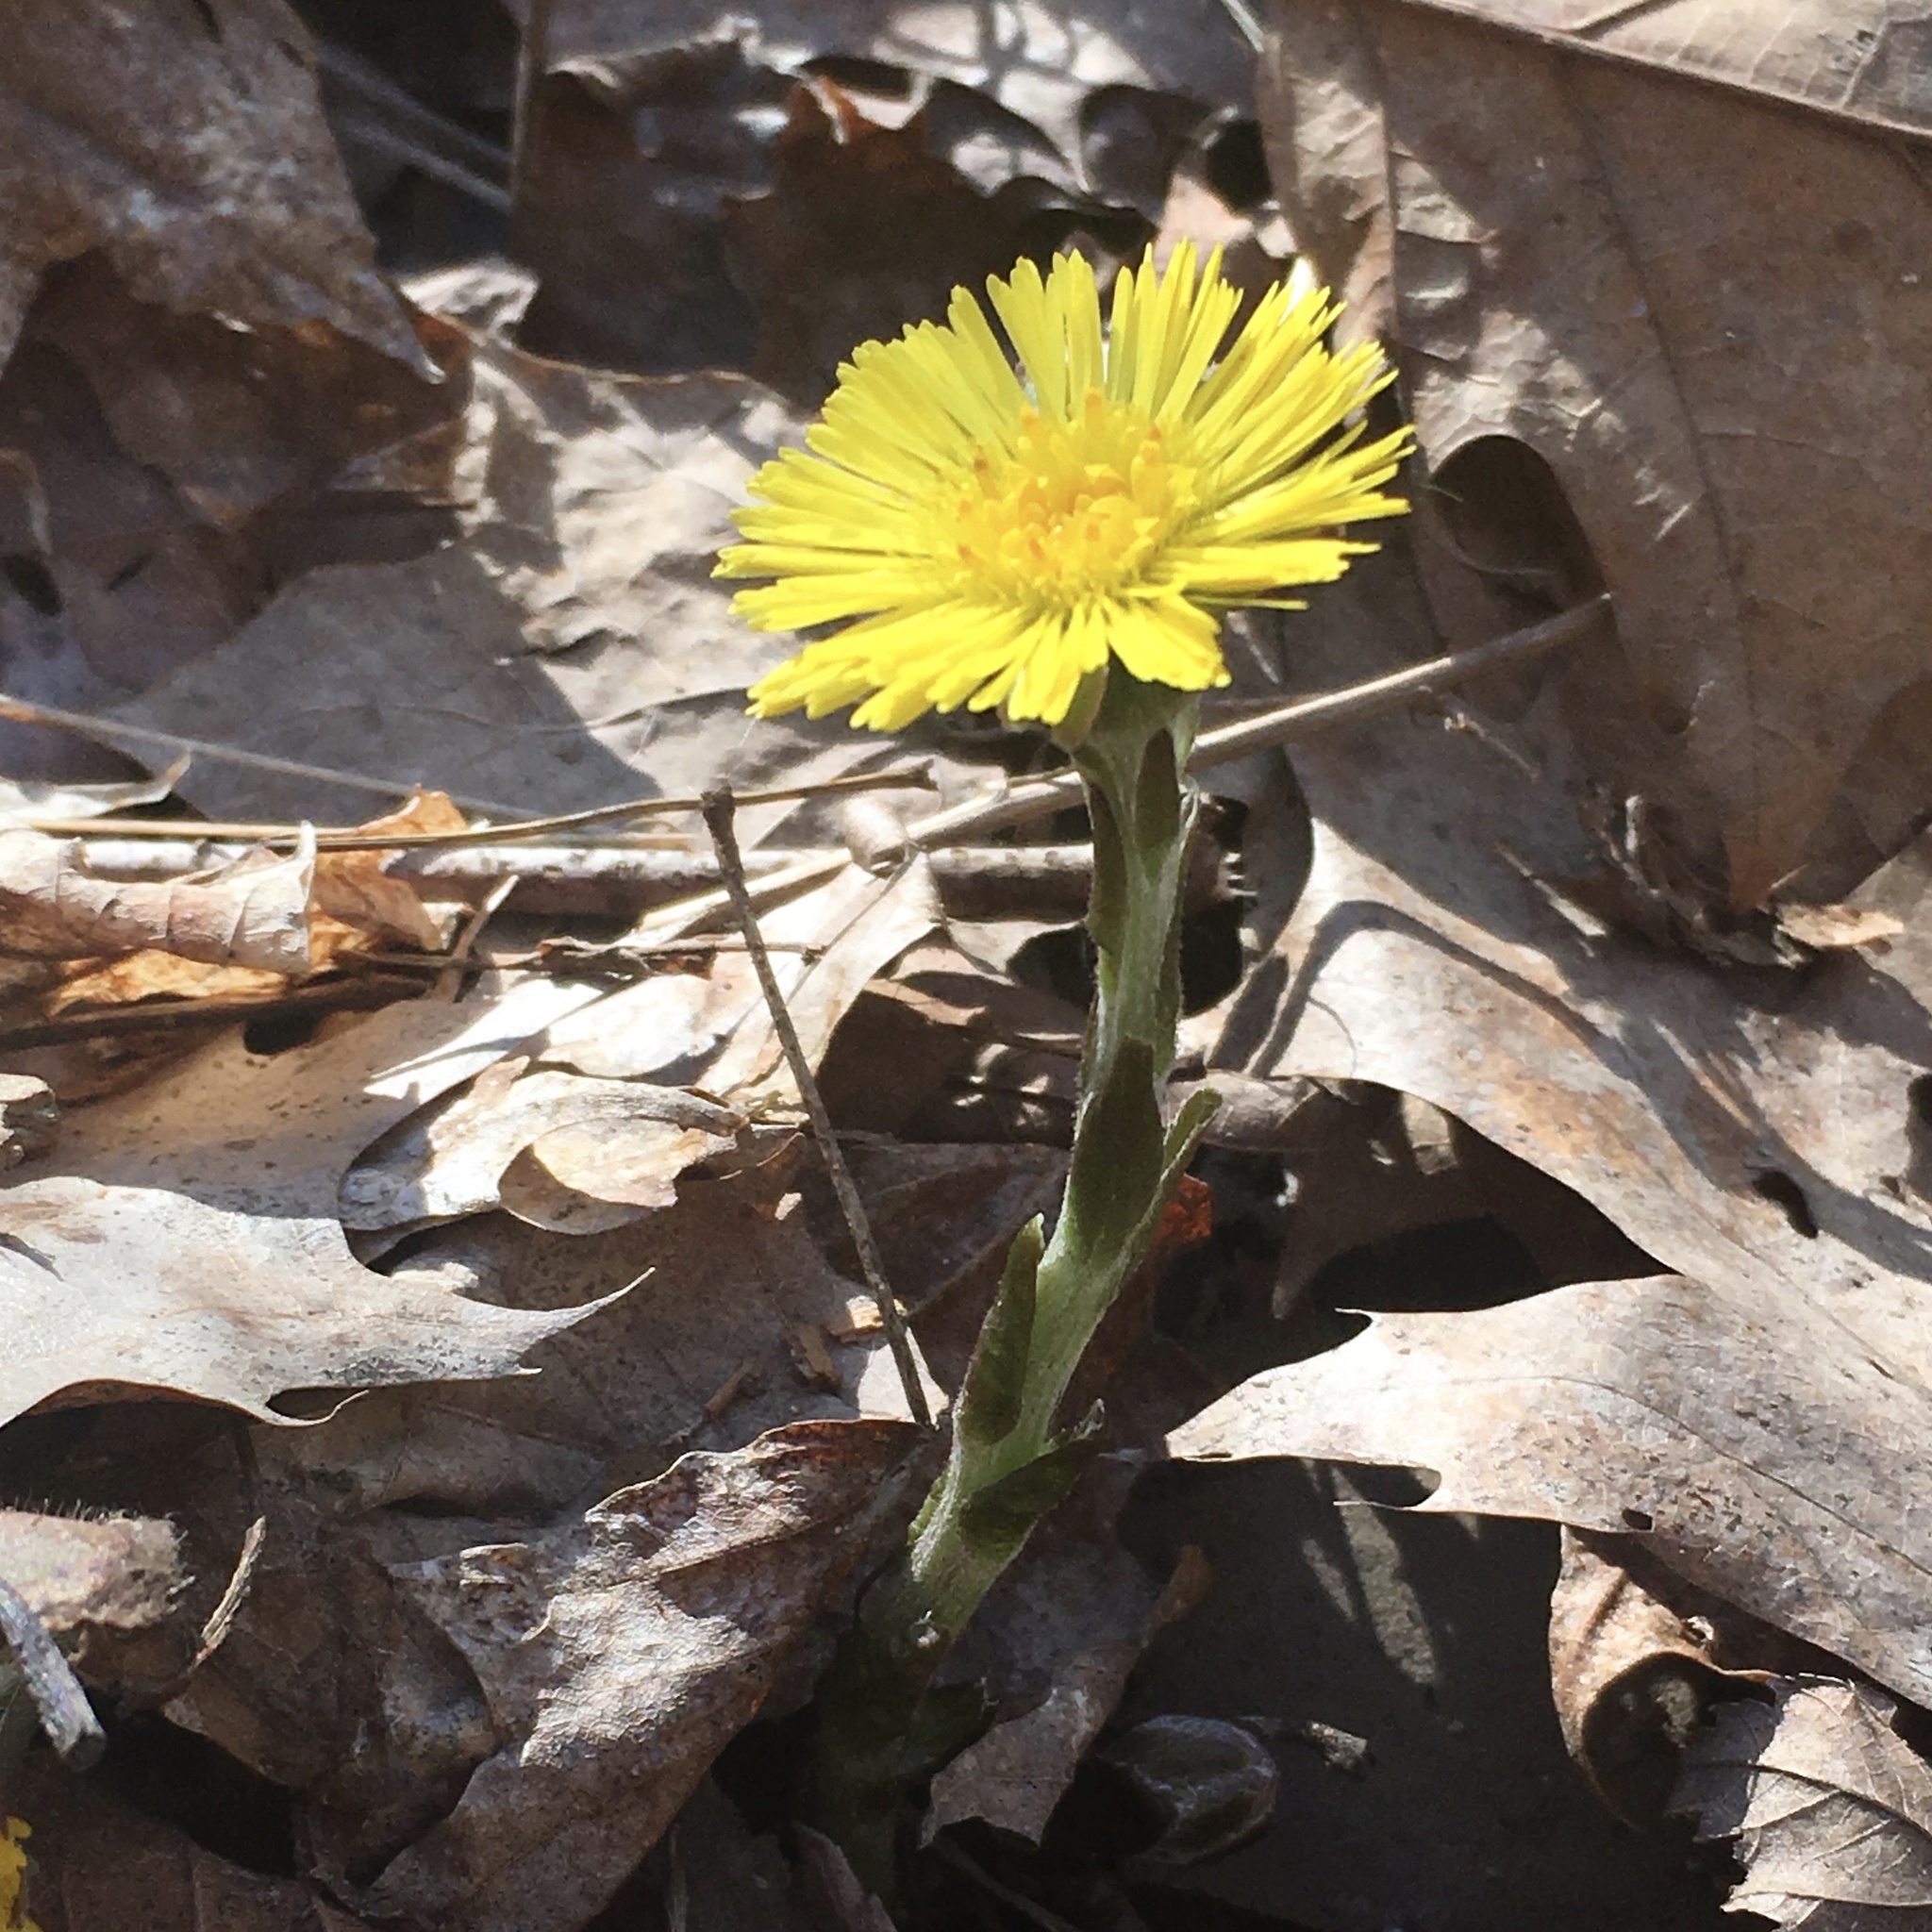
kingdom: Plantae
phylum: Tracheophyta
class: Magnoliopsida
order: Asterales
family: Asteraceae
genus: Tussilago
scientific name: Tussilago farfara
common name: Coltsfoot
